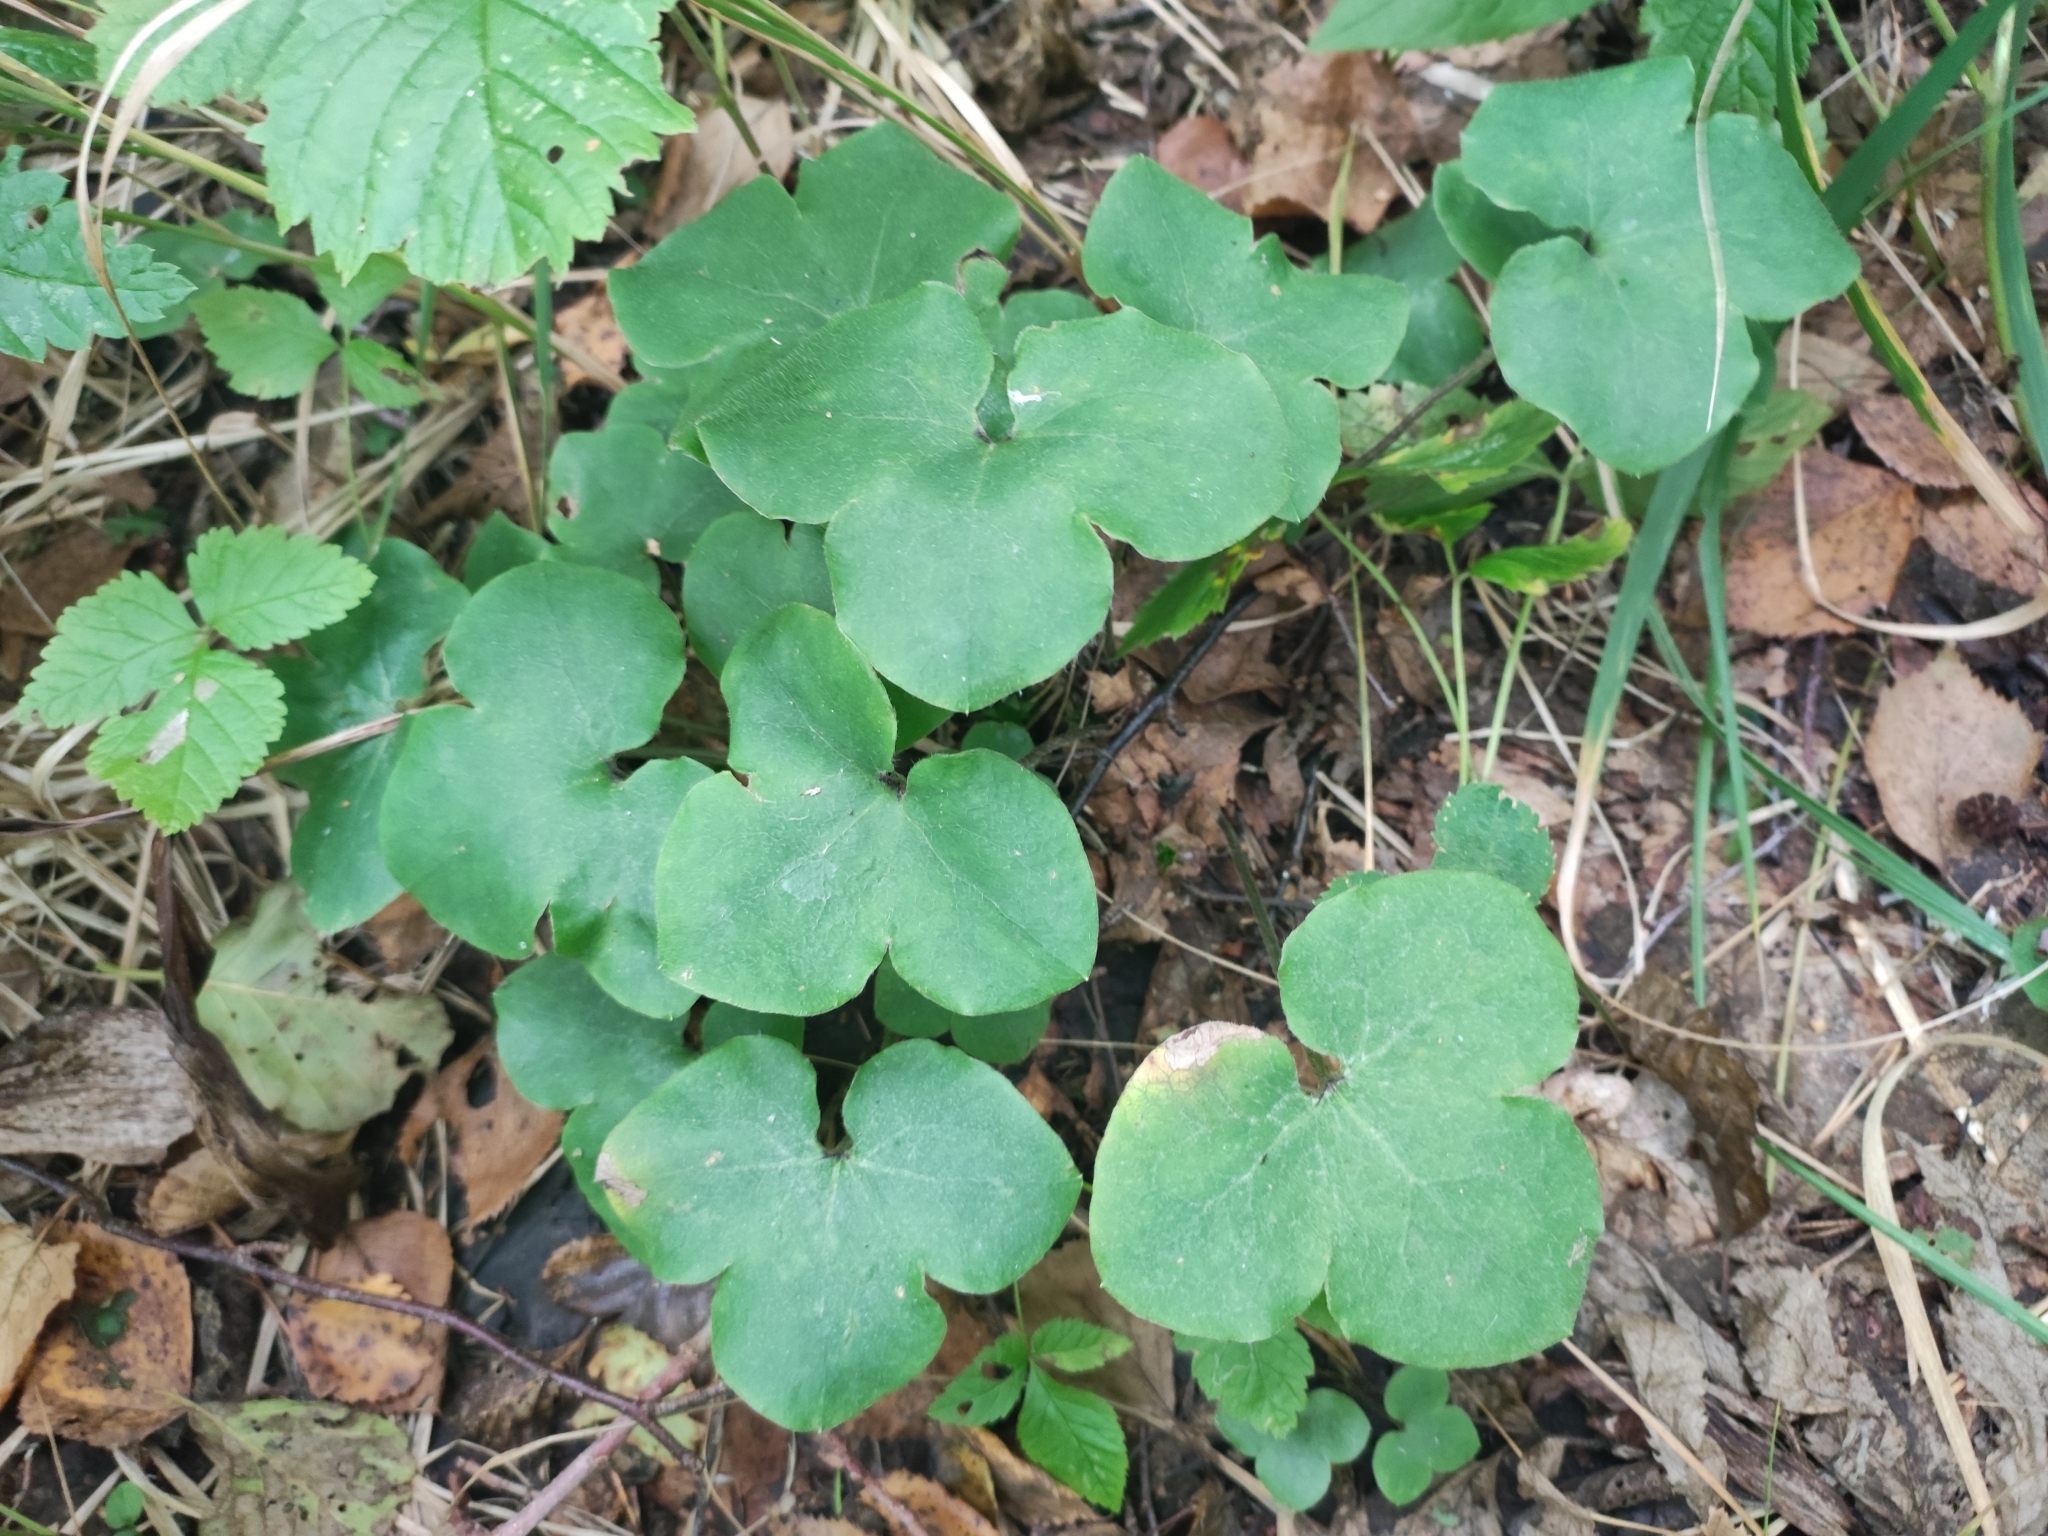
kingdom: Plantae
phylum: Tracheophyta
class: Magnoliopsida
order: Ranunculales
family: Ranunculaceae
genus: Hepatica
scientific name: Hepatica nobilis
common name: Liverleaf
